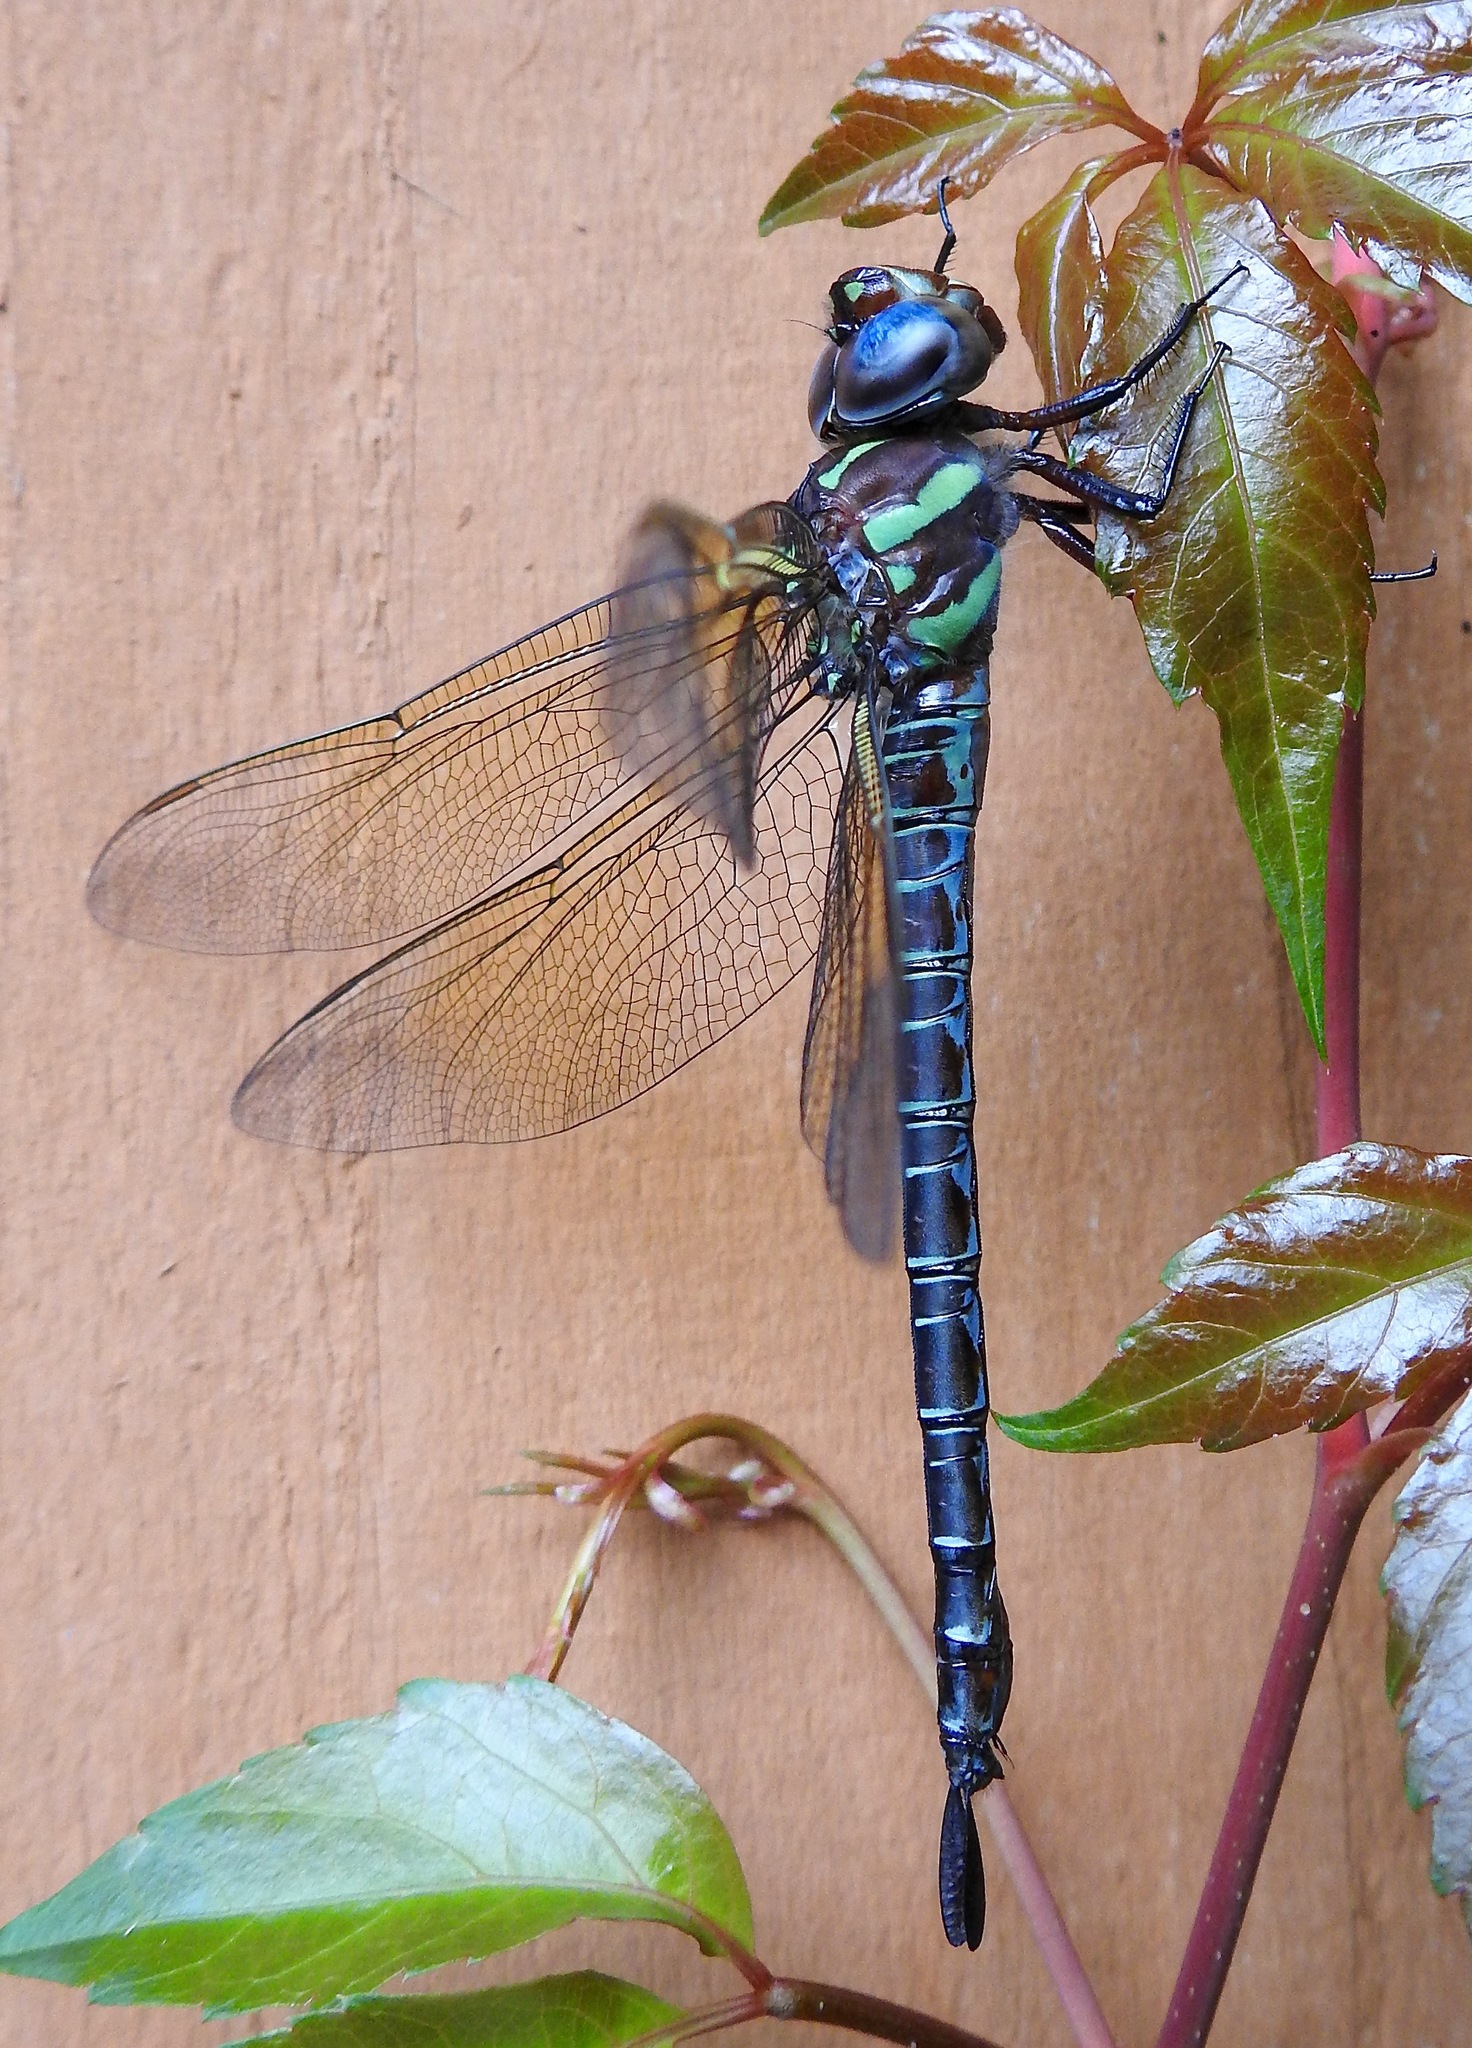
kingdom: Animalia
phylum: Arthropoda
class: Insecta
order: Odonata
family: Aeshnidae
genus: Epiaeschna
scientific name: Epiaeschna heros
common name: Swamp darner
